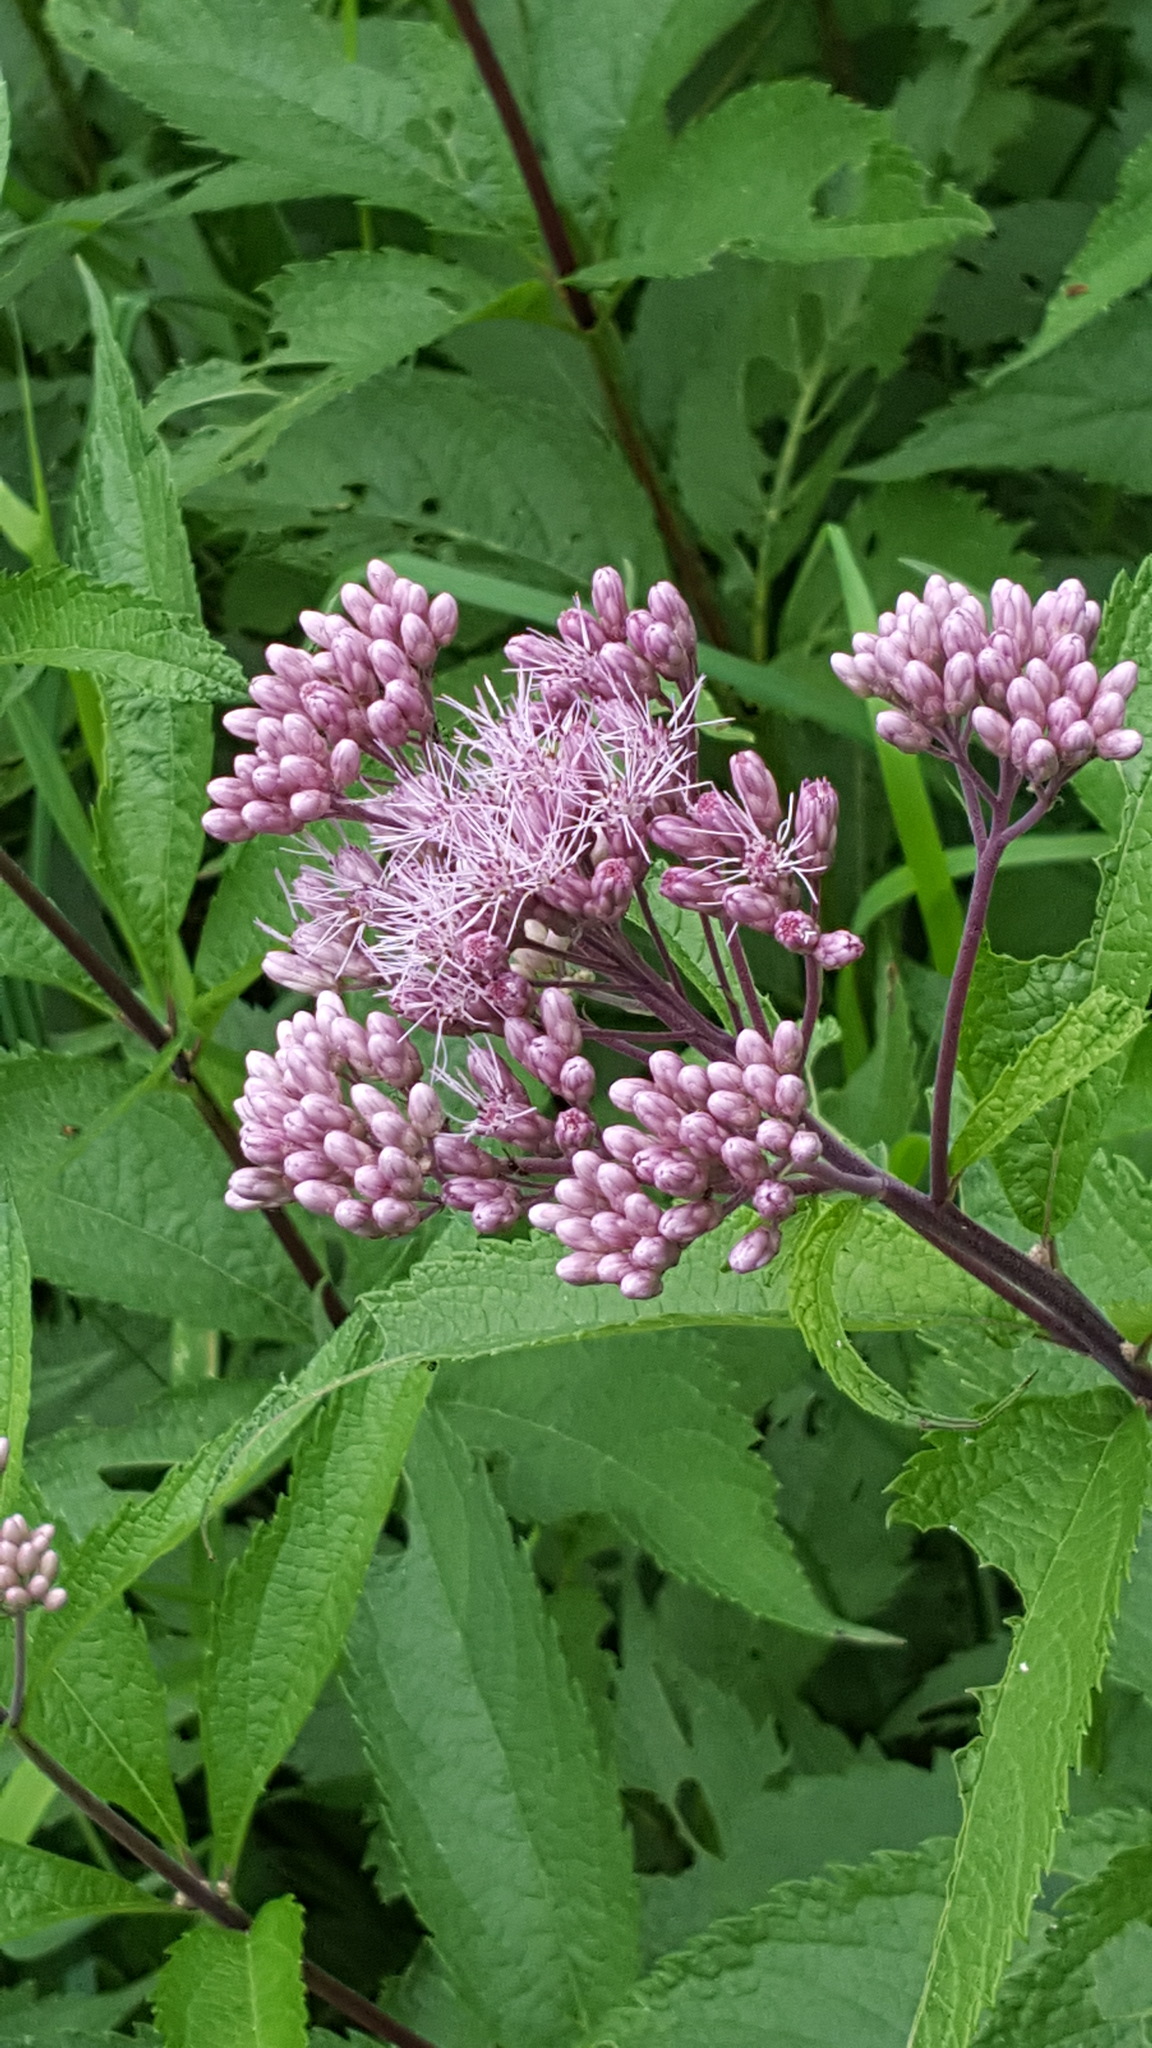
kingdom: Plantae
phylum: Tracheophyta
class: Magnoliopsida
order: Asterales
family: Asteraceae
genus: Eutrochium
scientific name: Eutrochium maculatum
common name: Spotted joe pye weed
